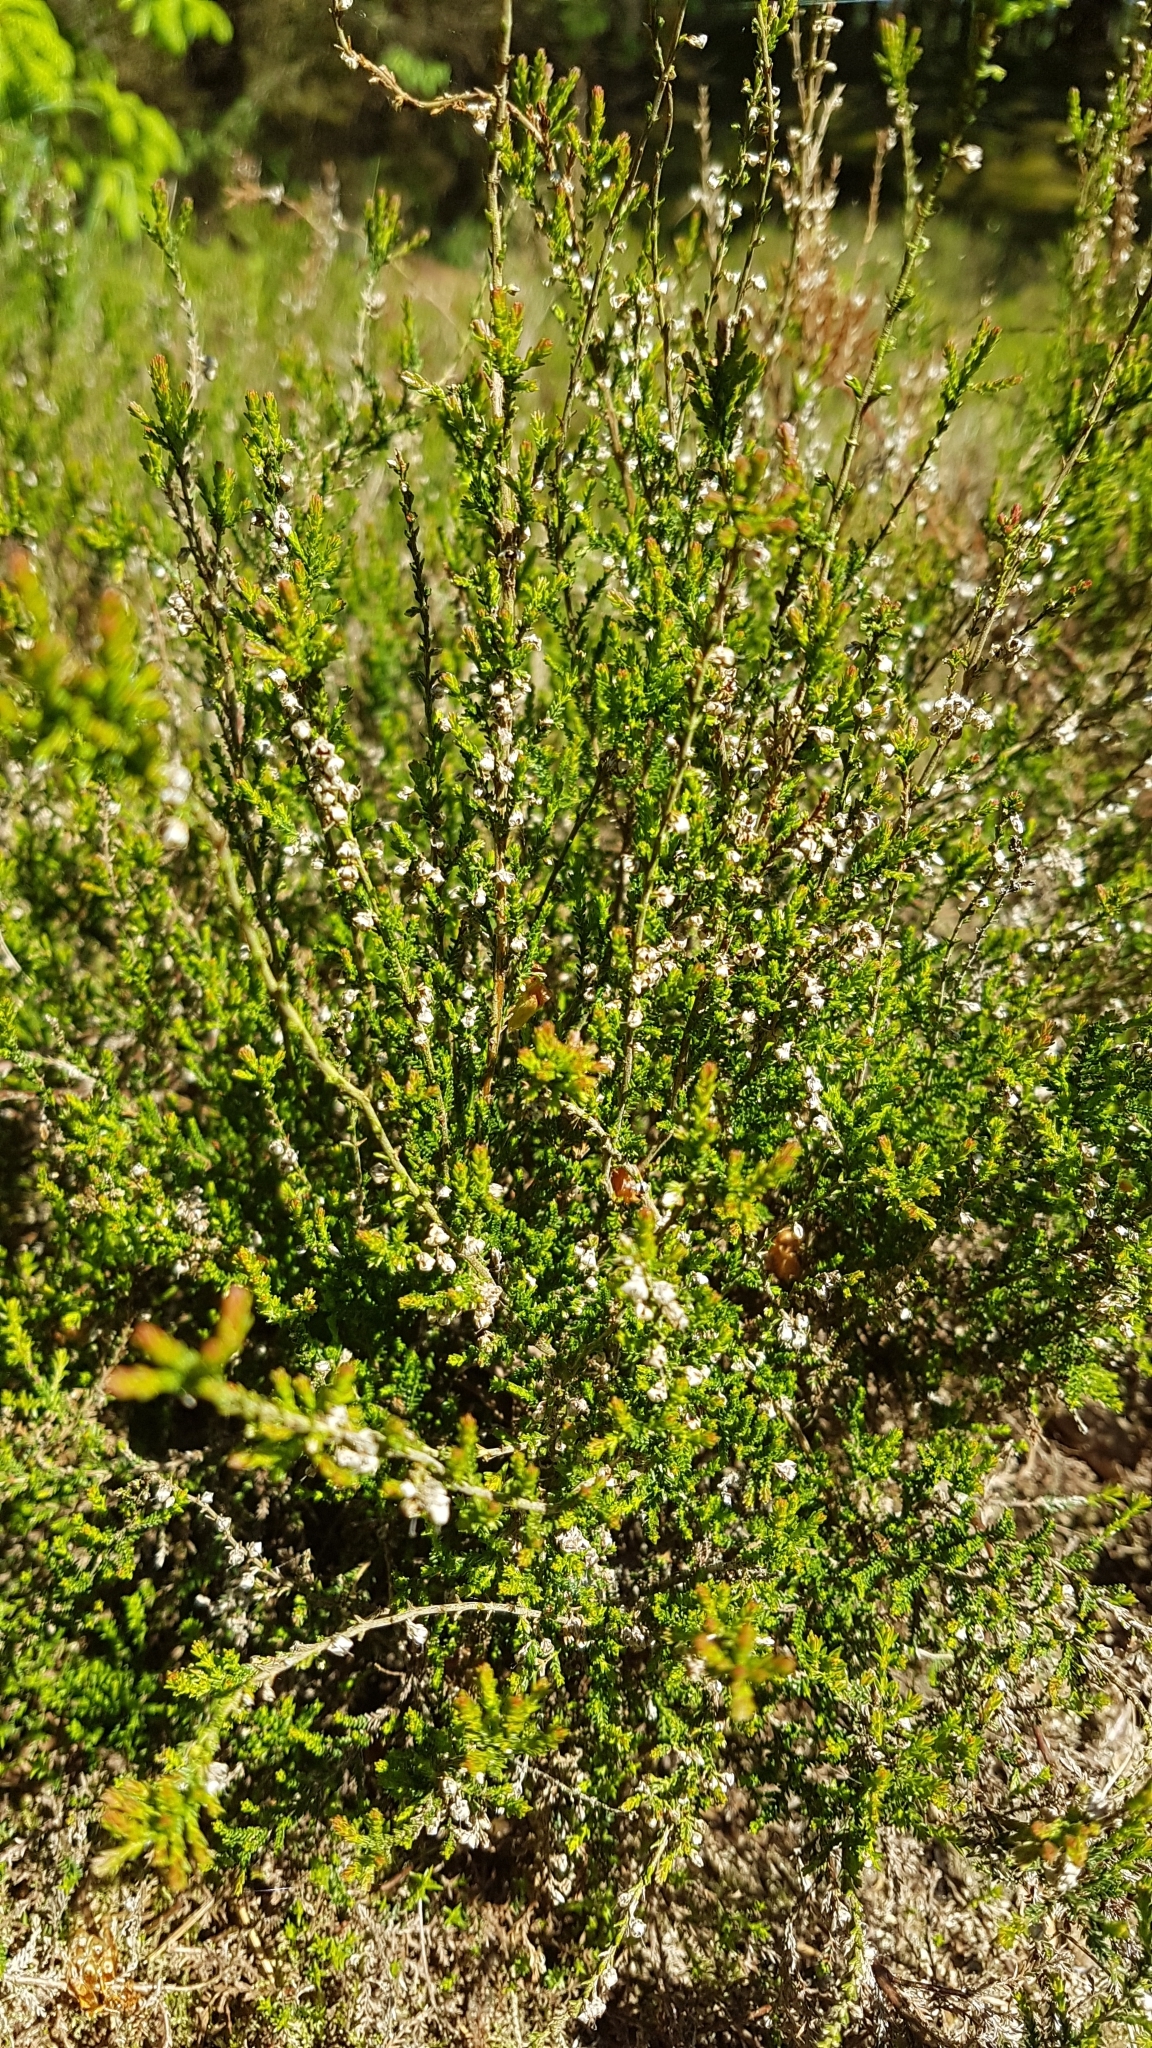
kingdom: Plantae
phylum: Tracheophyta
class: Magnoliopsida
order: Ericales
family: Ericaceae
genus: Calluna
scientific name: Calluna vulgaris
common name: Heather
